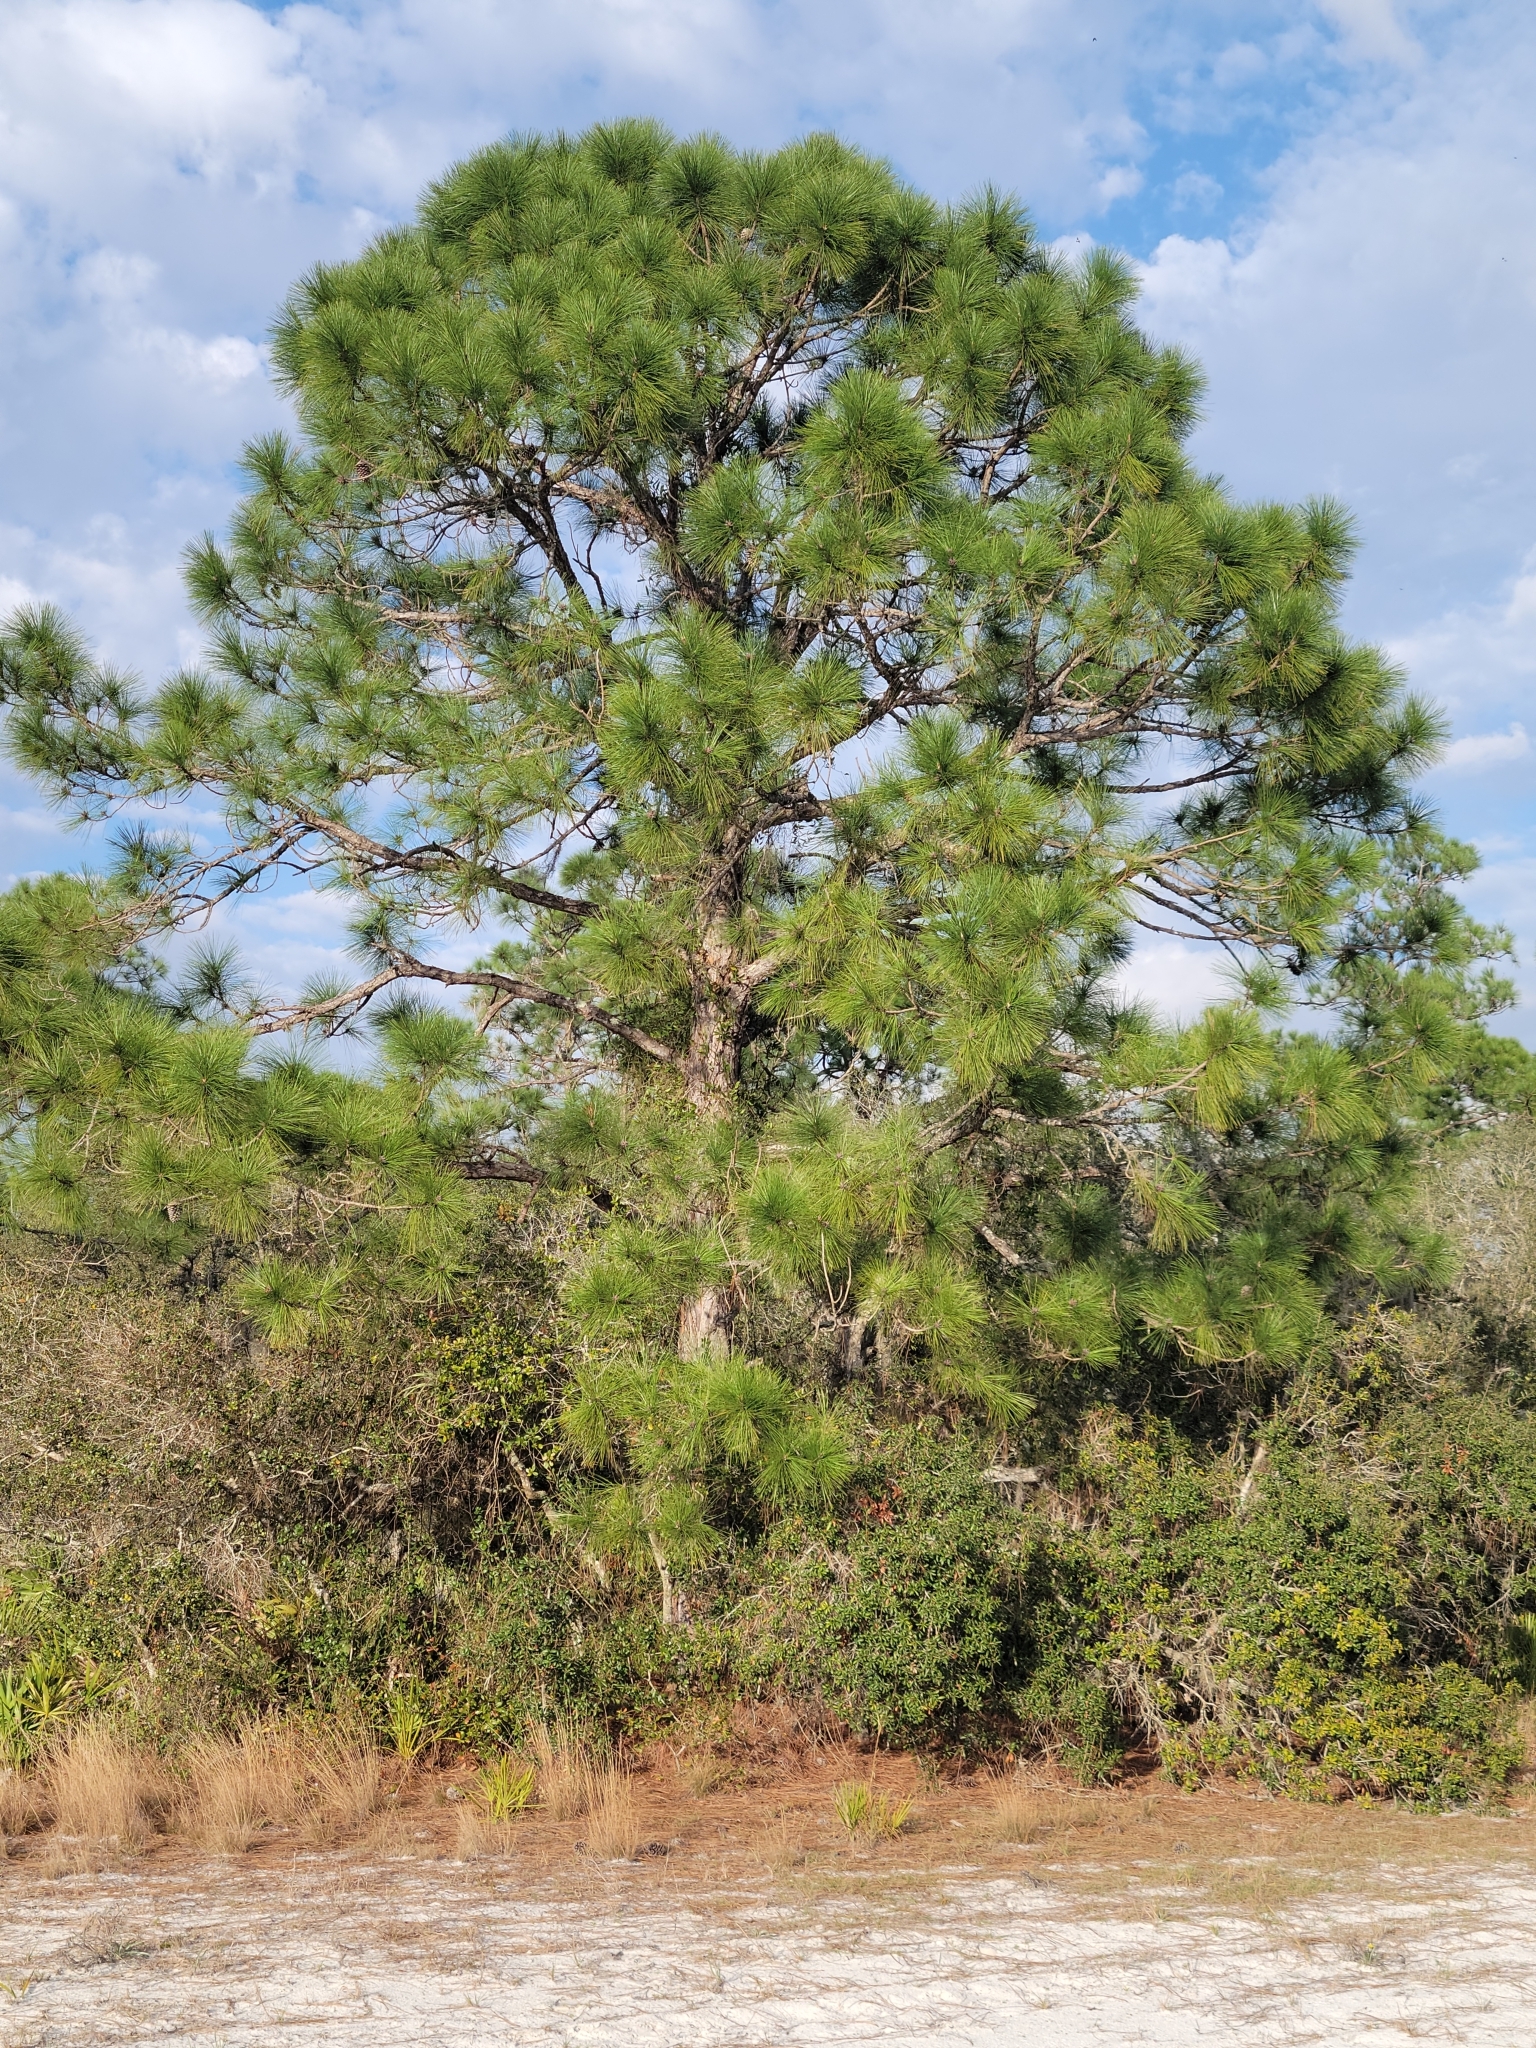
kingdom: Plantae
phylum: Tracheophyta
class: Pinopsida
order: Pinales
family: Pinaceae
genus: Pinus
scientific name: Pinus elliottii
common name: Slash pine
